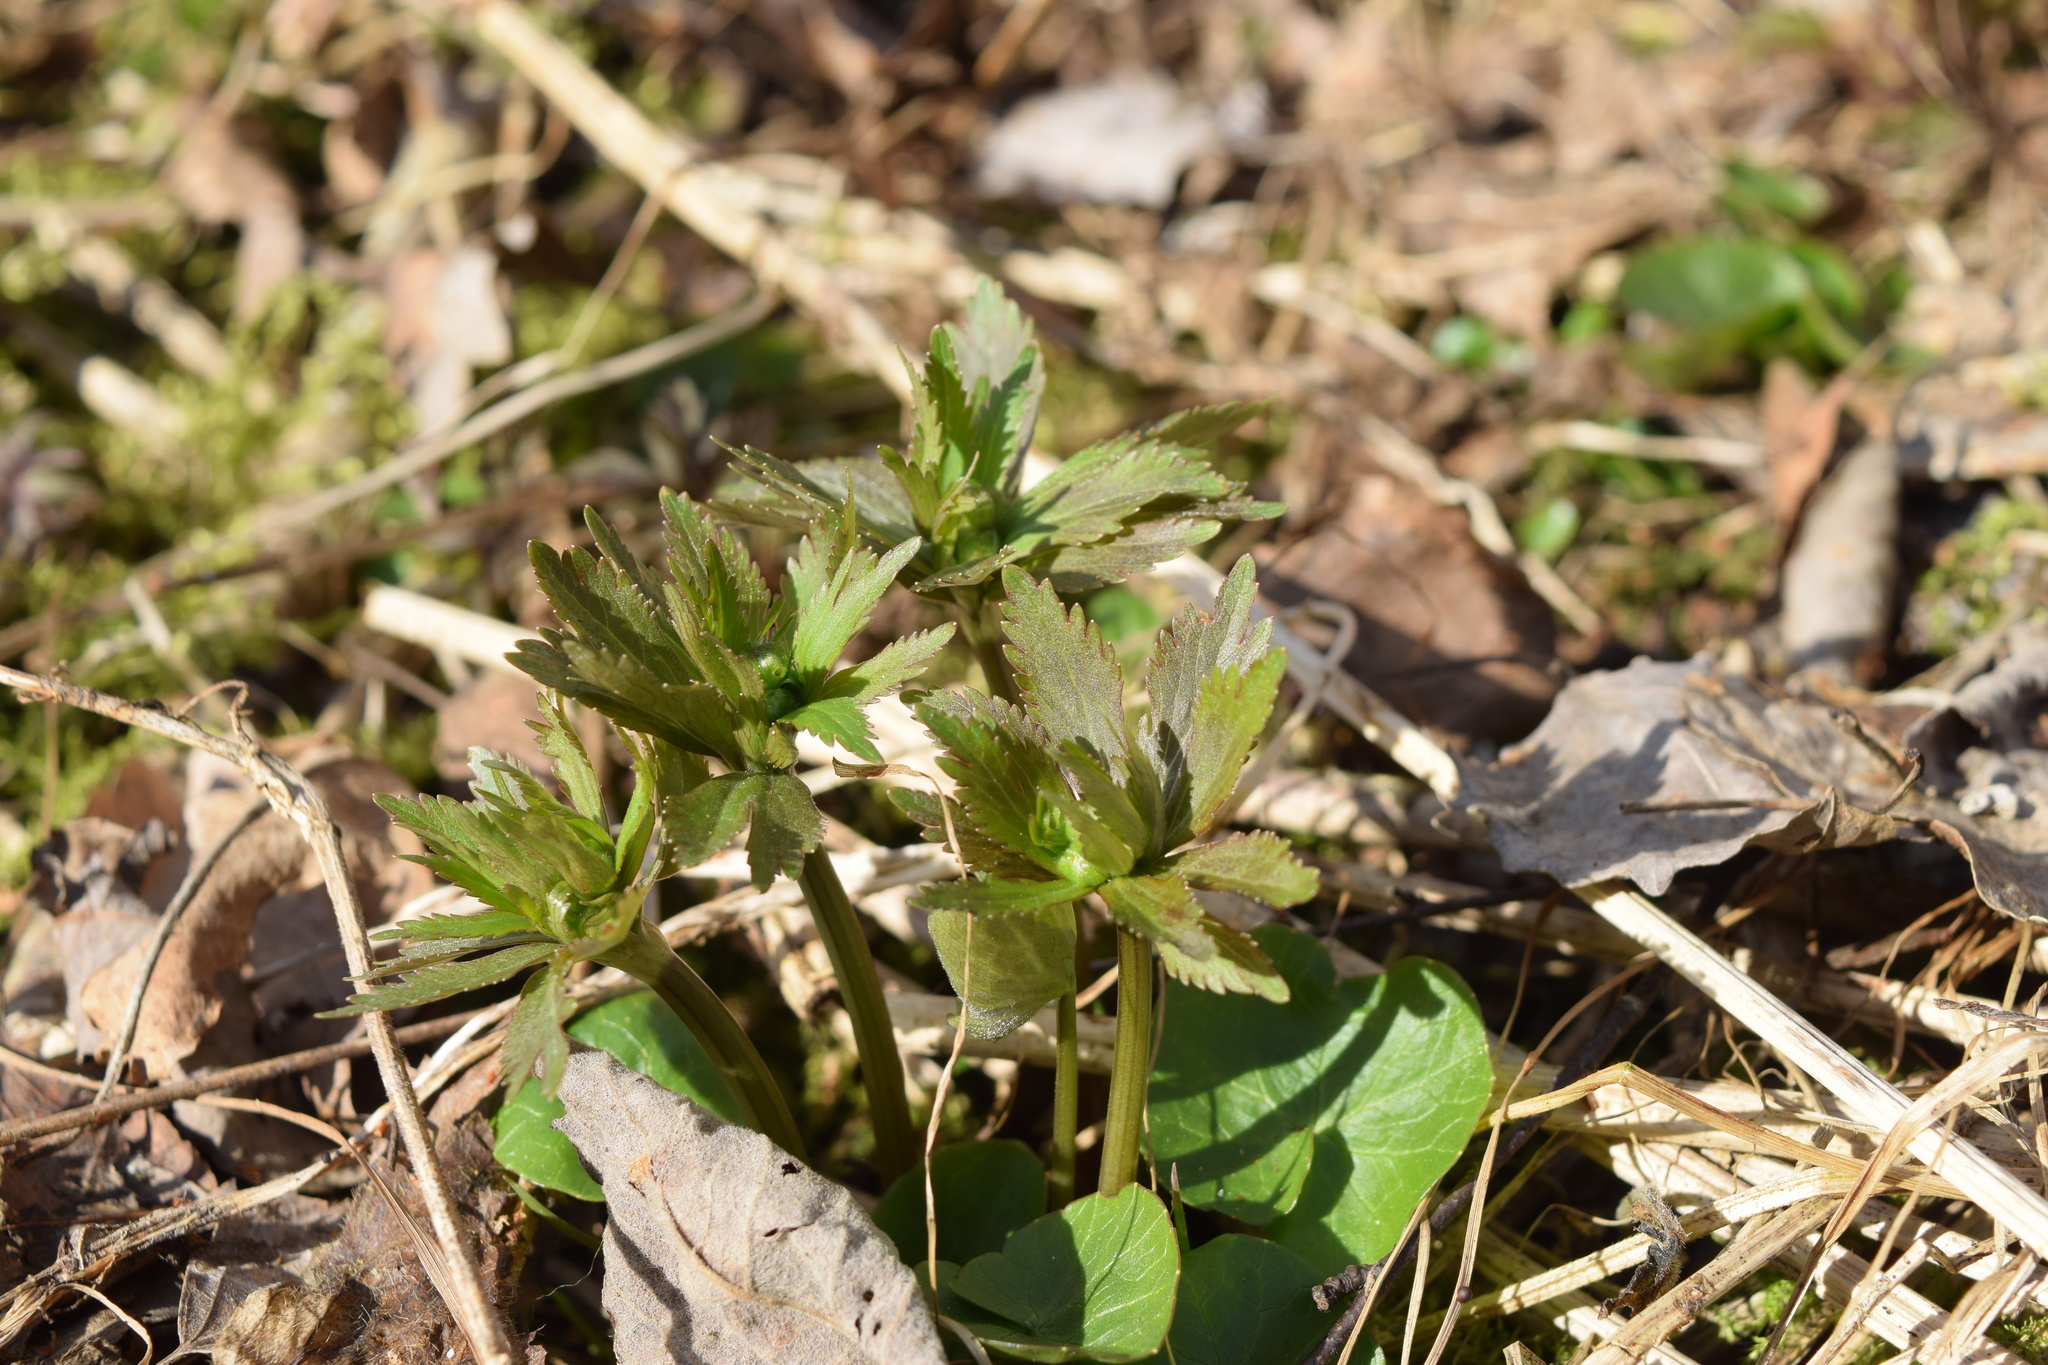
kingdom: Plantae
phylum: Tracheophyta
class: Magnoliopsida
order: Ranunculales
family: Ranunculaceae
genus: Ranunculus
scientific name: Ranunculus cassubicus
